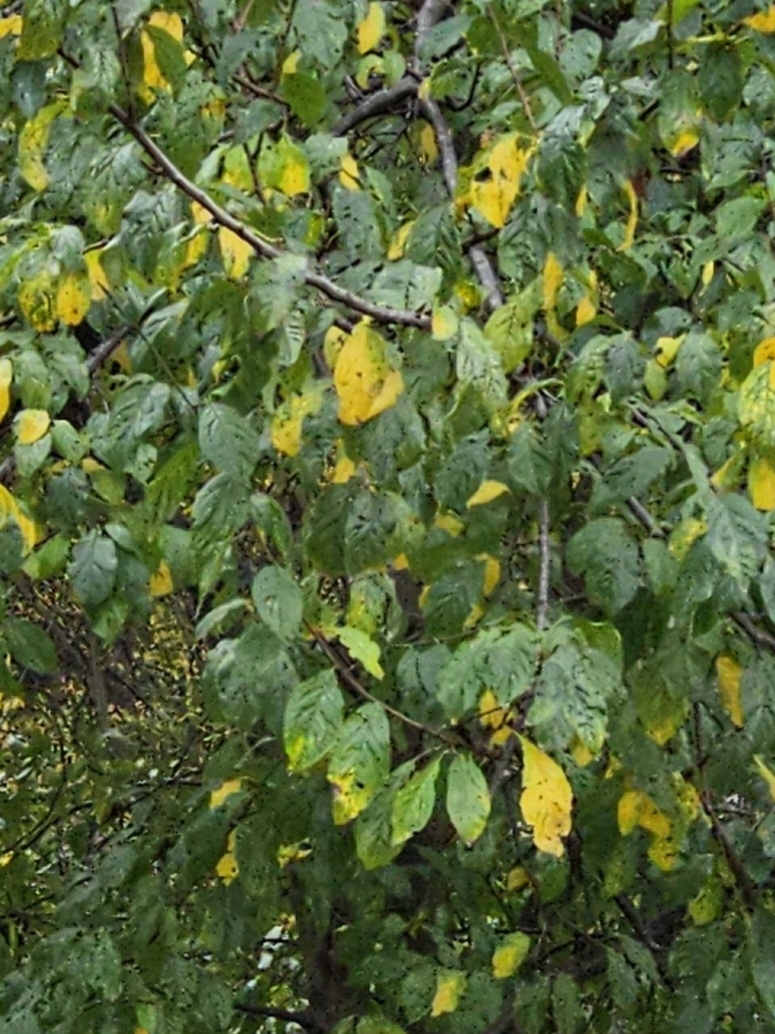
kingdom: Plantae
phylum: Tracheophyta
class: Magnoliopsida
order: Rosales
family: Rosaceae
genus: Prunus
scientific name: Prunus cerasifera
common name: Cherry plum
